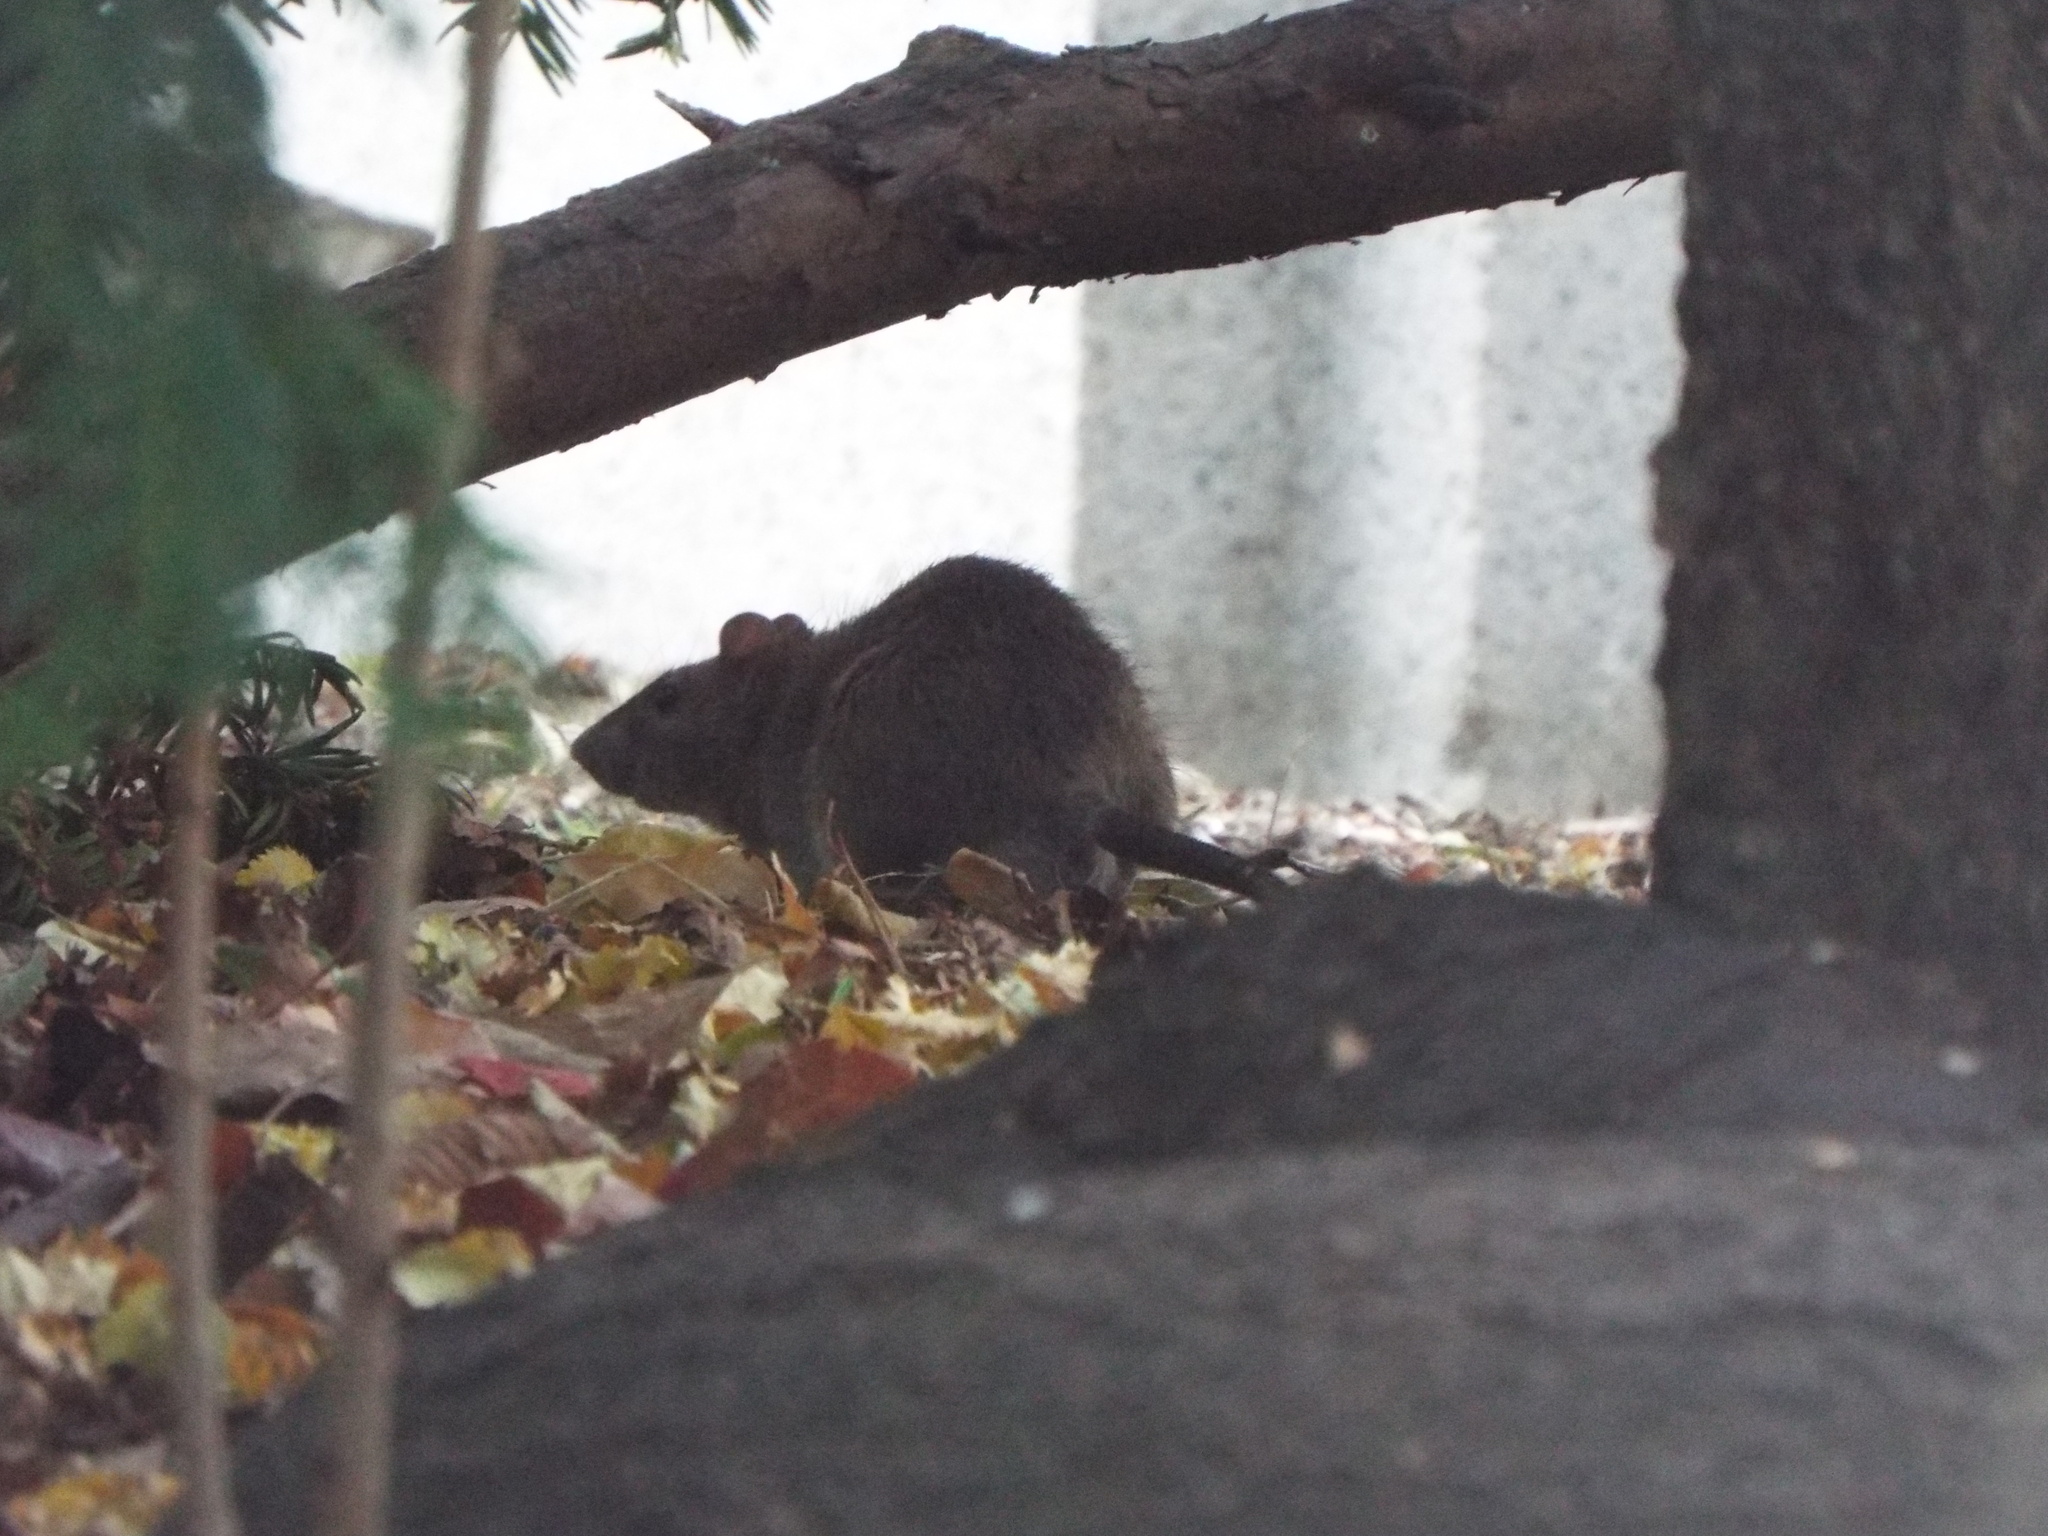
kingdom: Animalia
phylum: Chordata
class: Mammalia
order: Rodentia
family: Muridae
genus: Rattus
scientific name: Rattus norvegicus
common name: Brown rat
